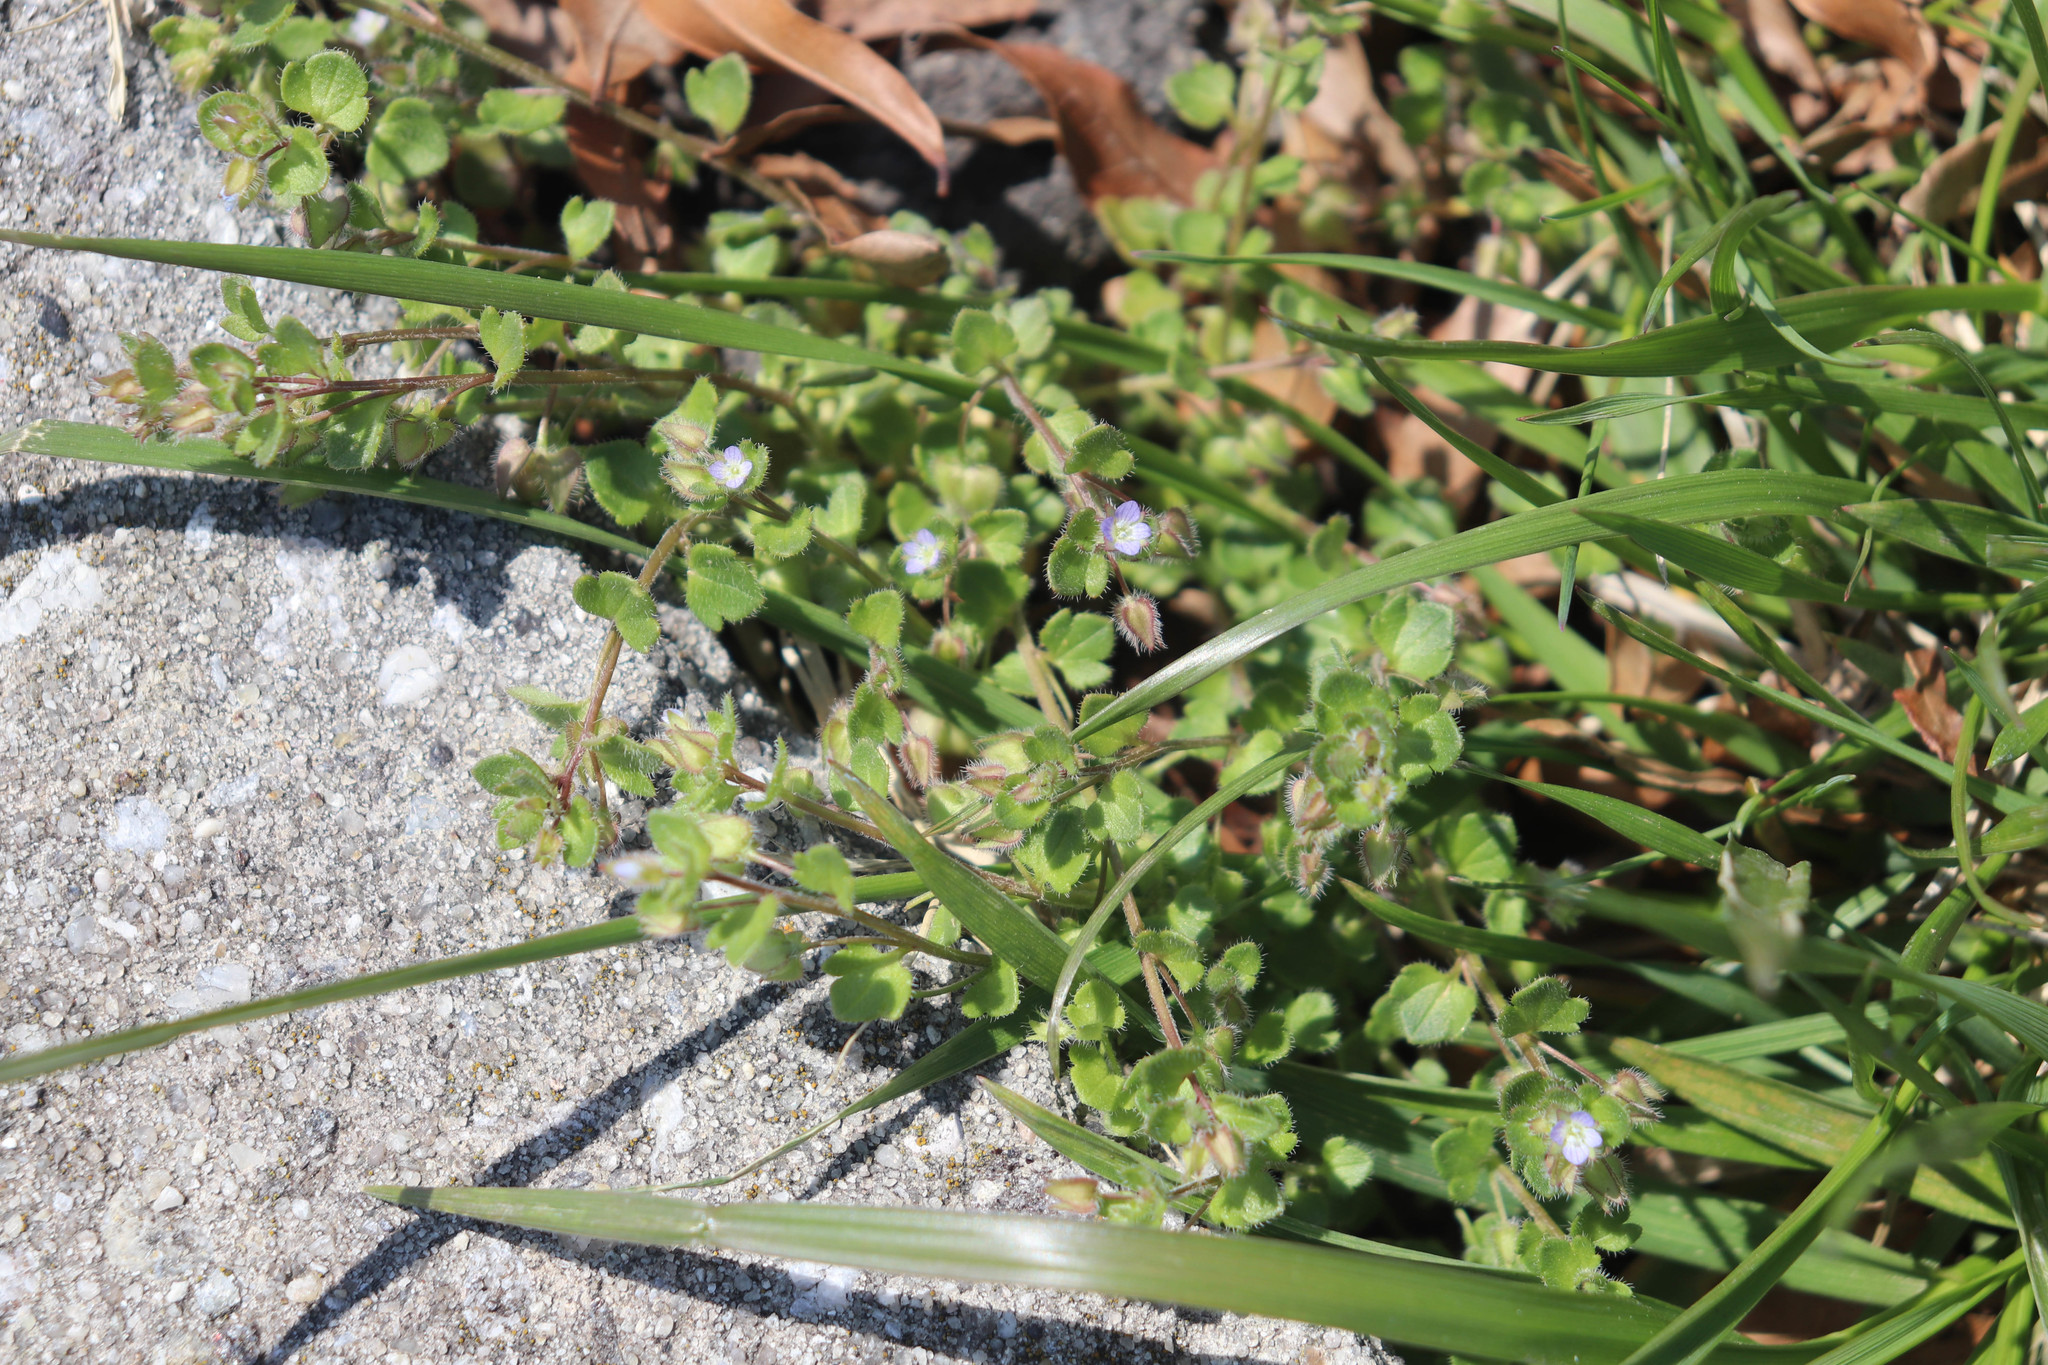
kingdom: Plantae
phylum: Tracheophyta
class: Magnoliopsida
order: Lamiales
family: Plantaginaceae
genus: Veronica
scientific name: Veronica hederifolia
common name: Ivy-leaved speedwell
